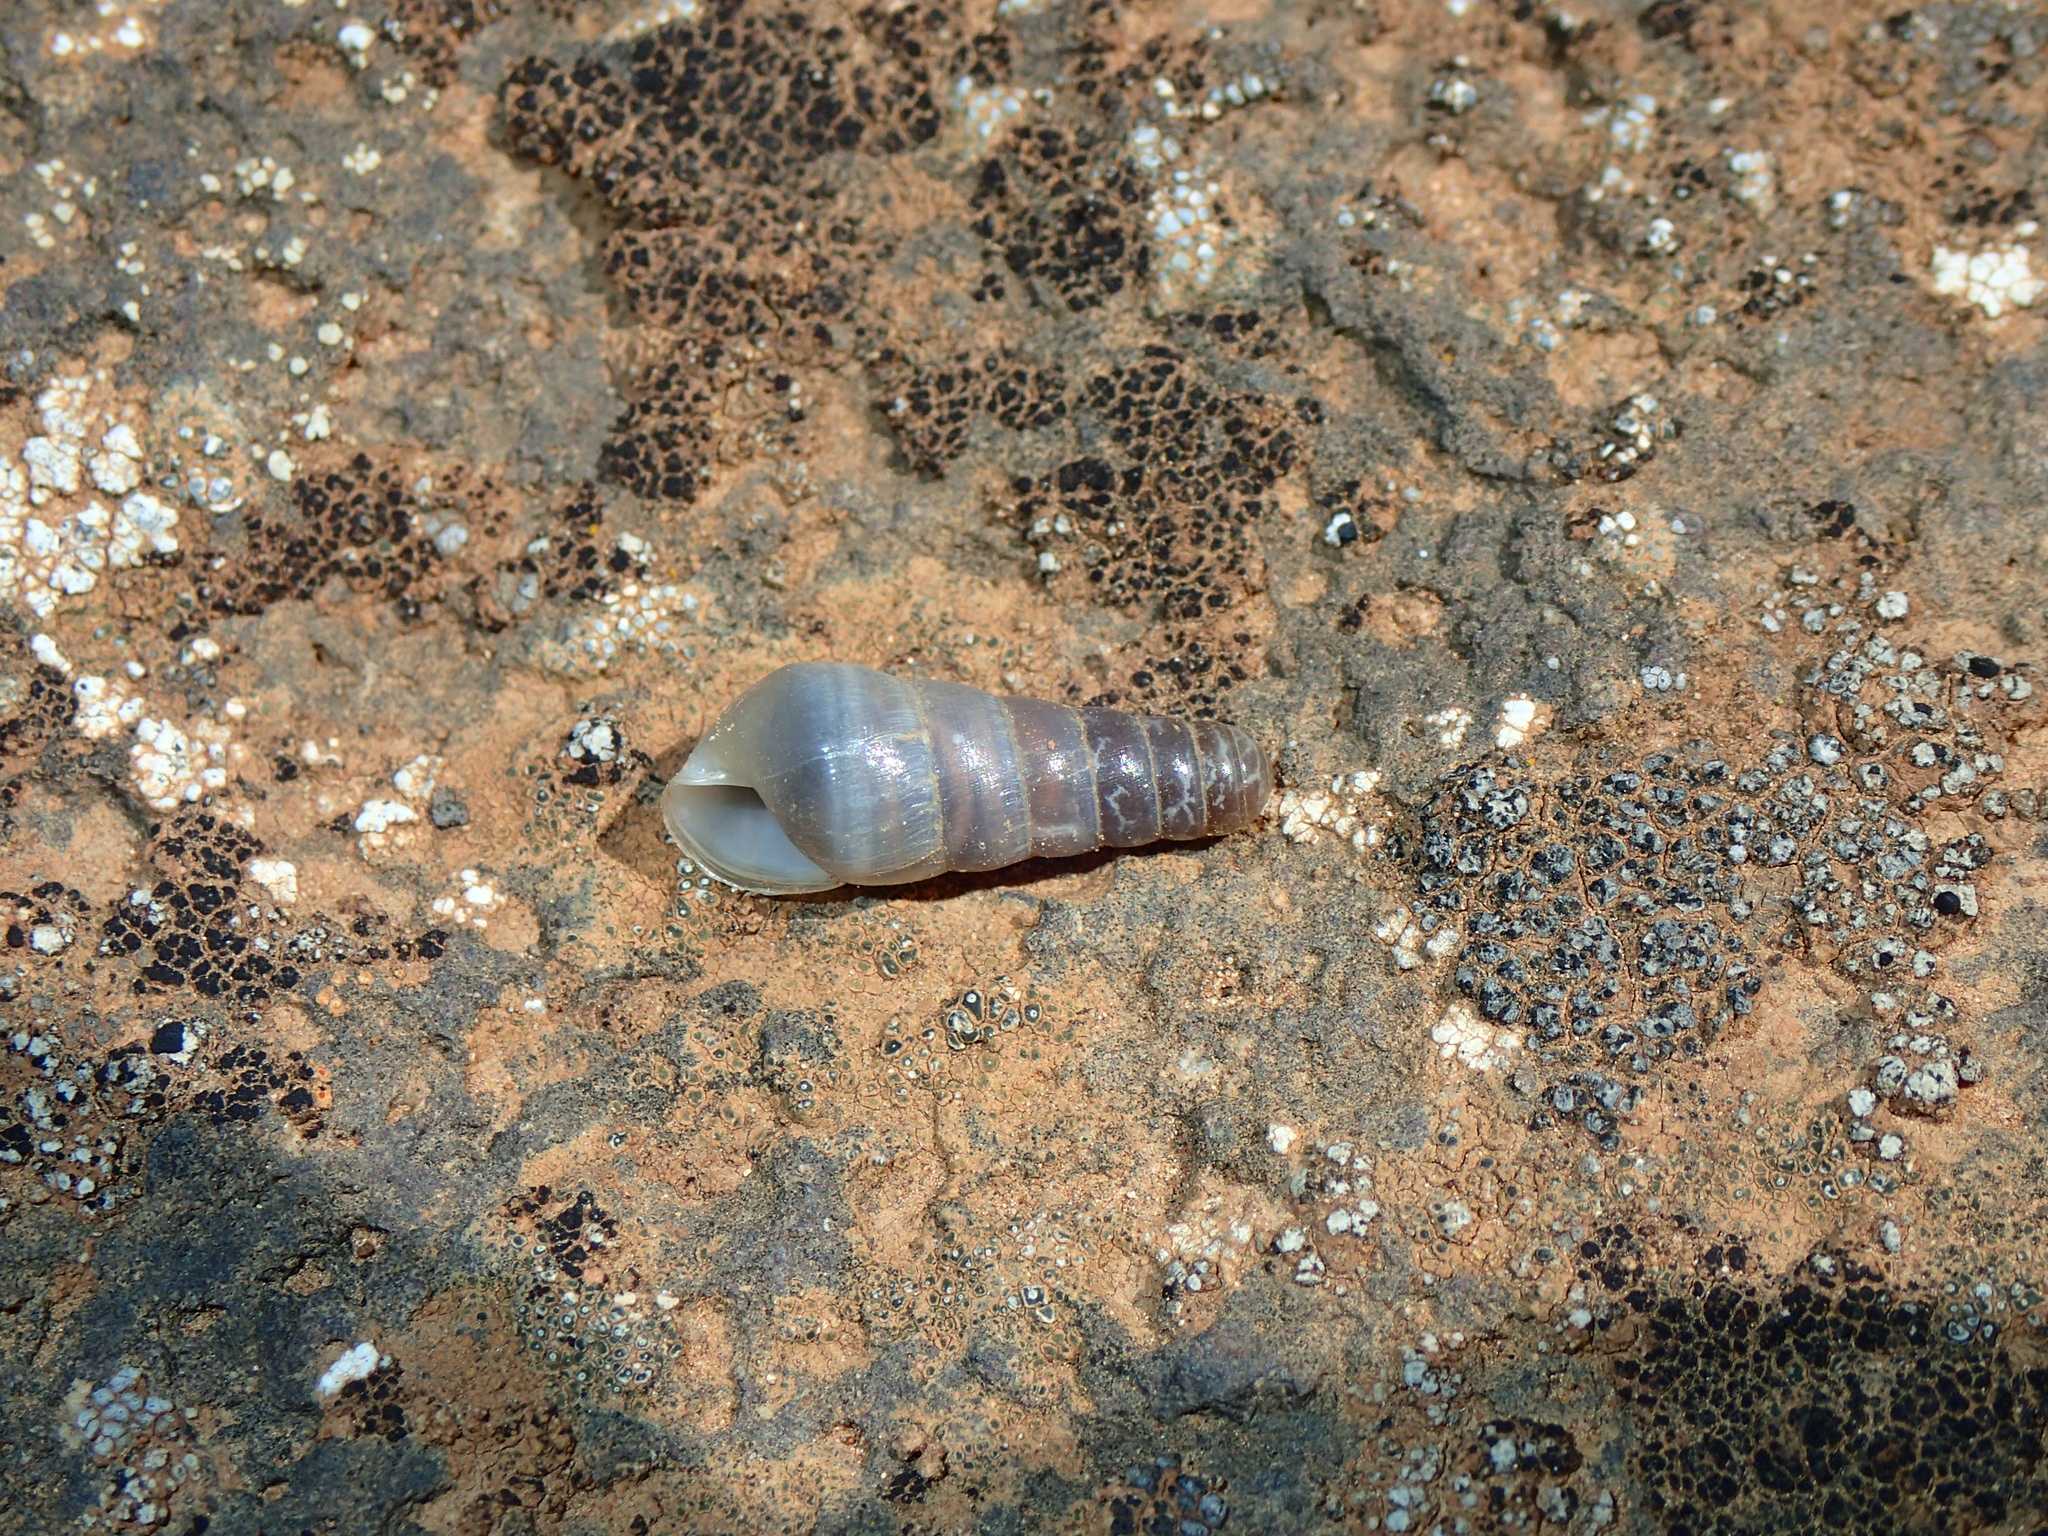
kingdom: Animalia
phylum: Mollusca
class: Gastropoda
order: Stylommatophora
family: Achatinidae
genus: Rumina
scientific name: Rumina decollata
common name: Decollate snail
